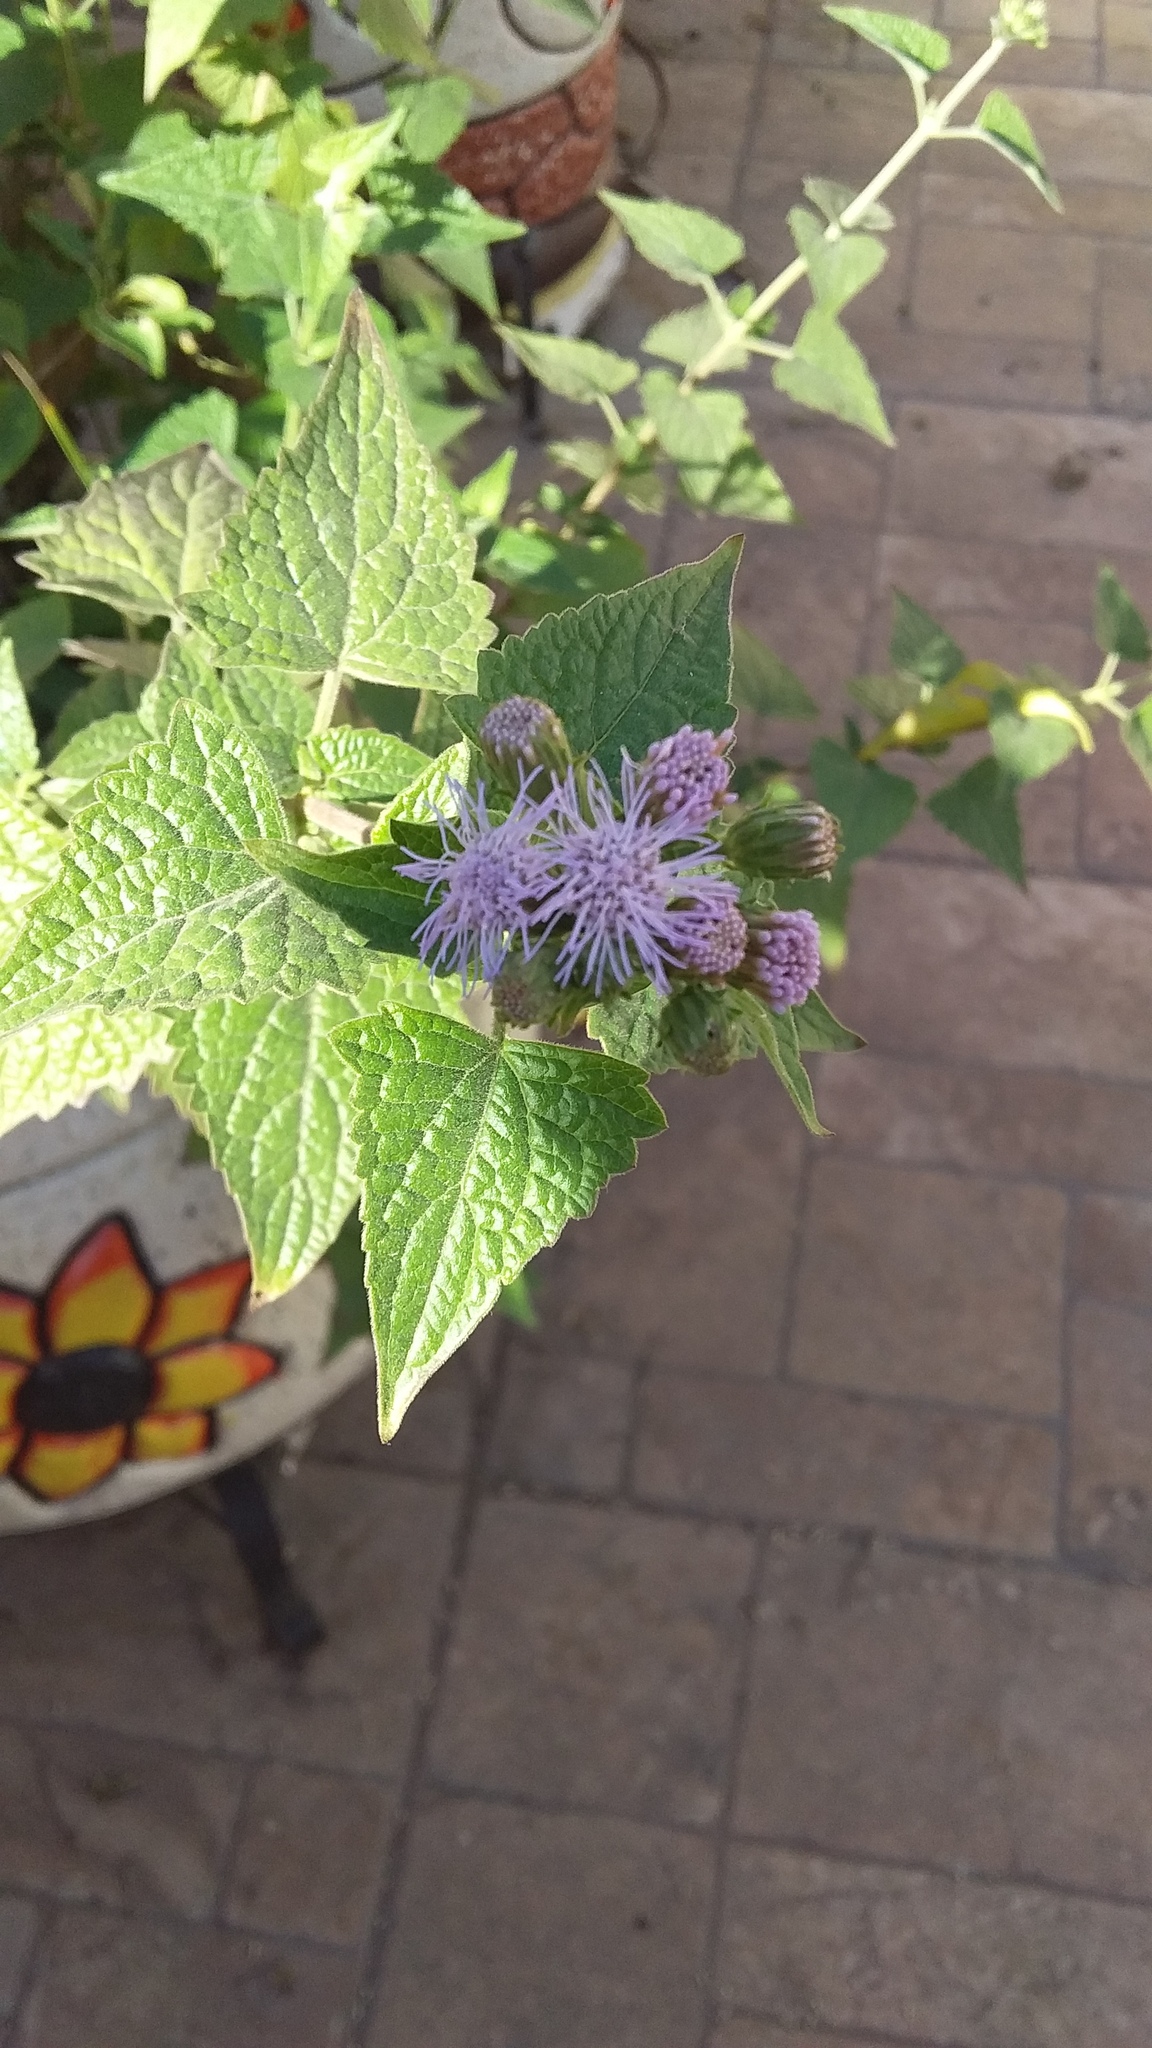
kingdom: Plantae
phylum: Tracheophyta
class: Magnoliopsida
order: Asterales
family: Asteraceae
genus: Tamaulipa
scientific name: Tamaulipa azurea
